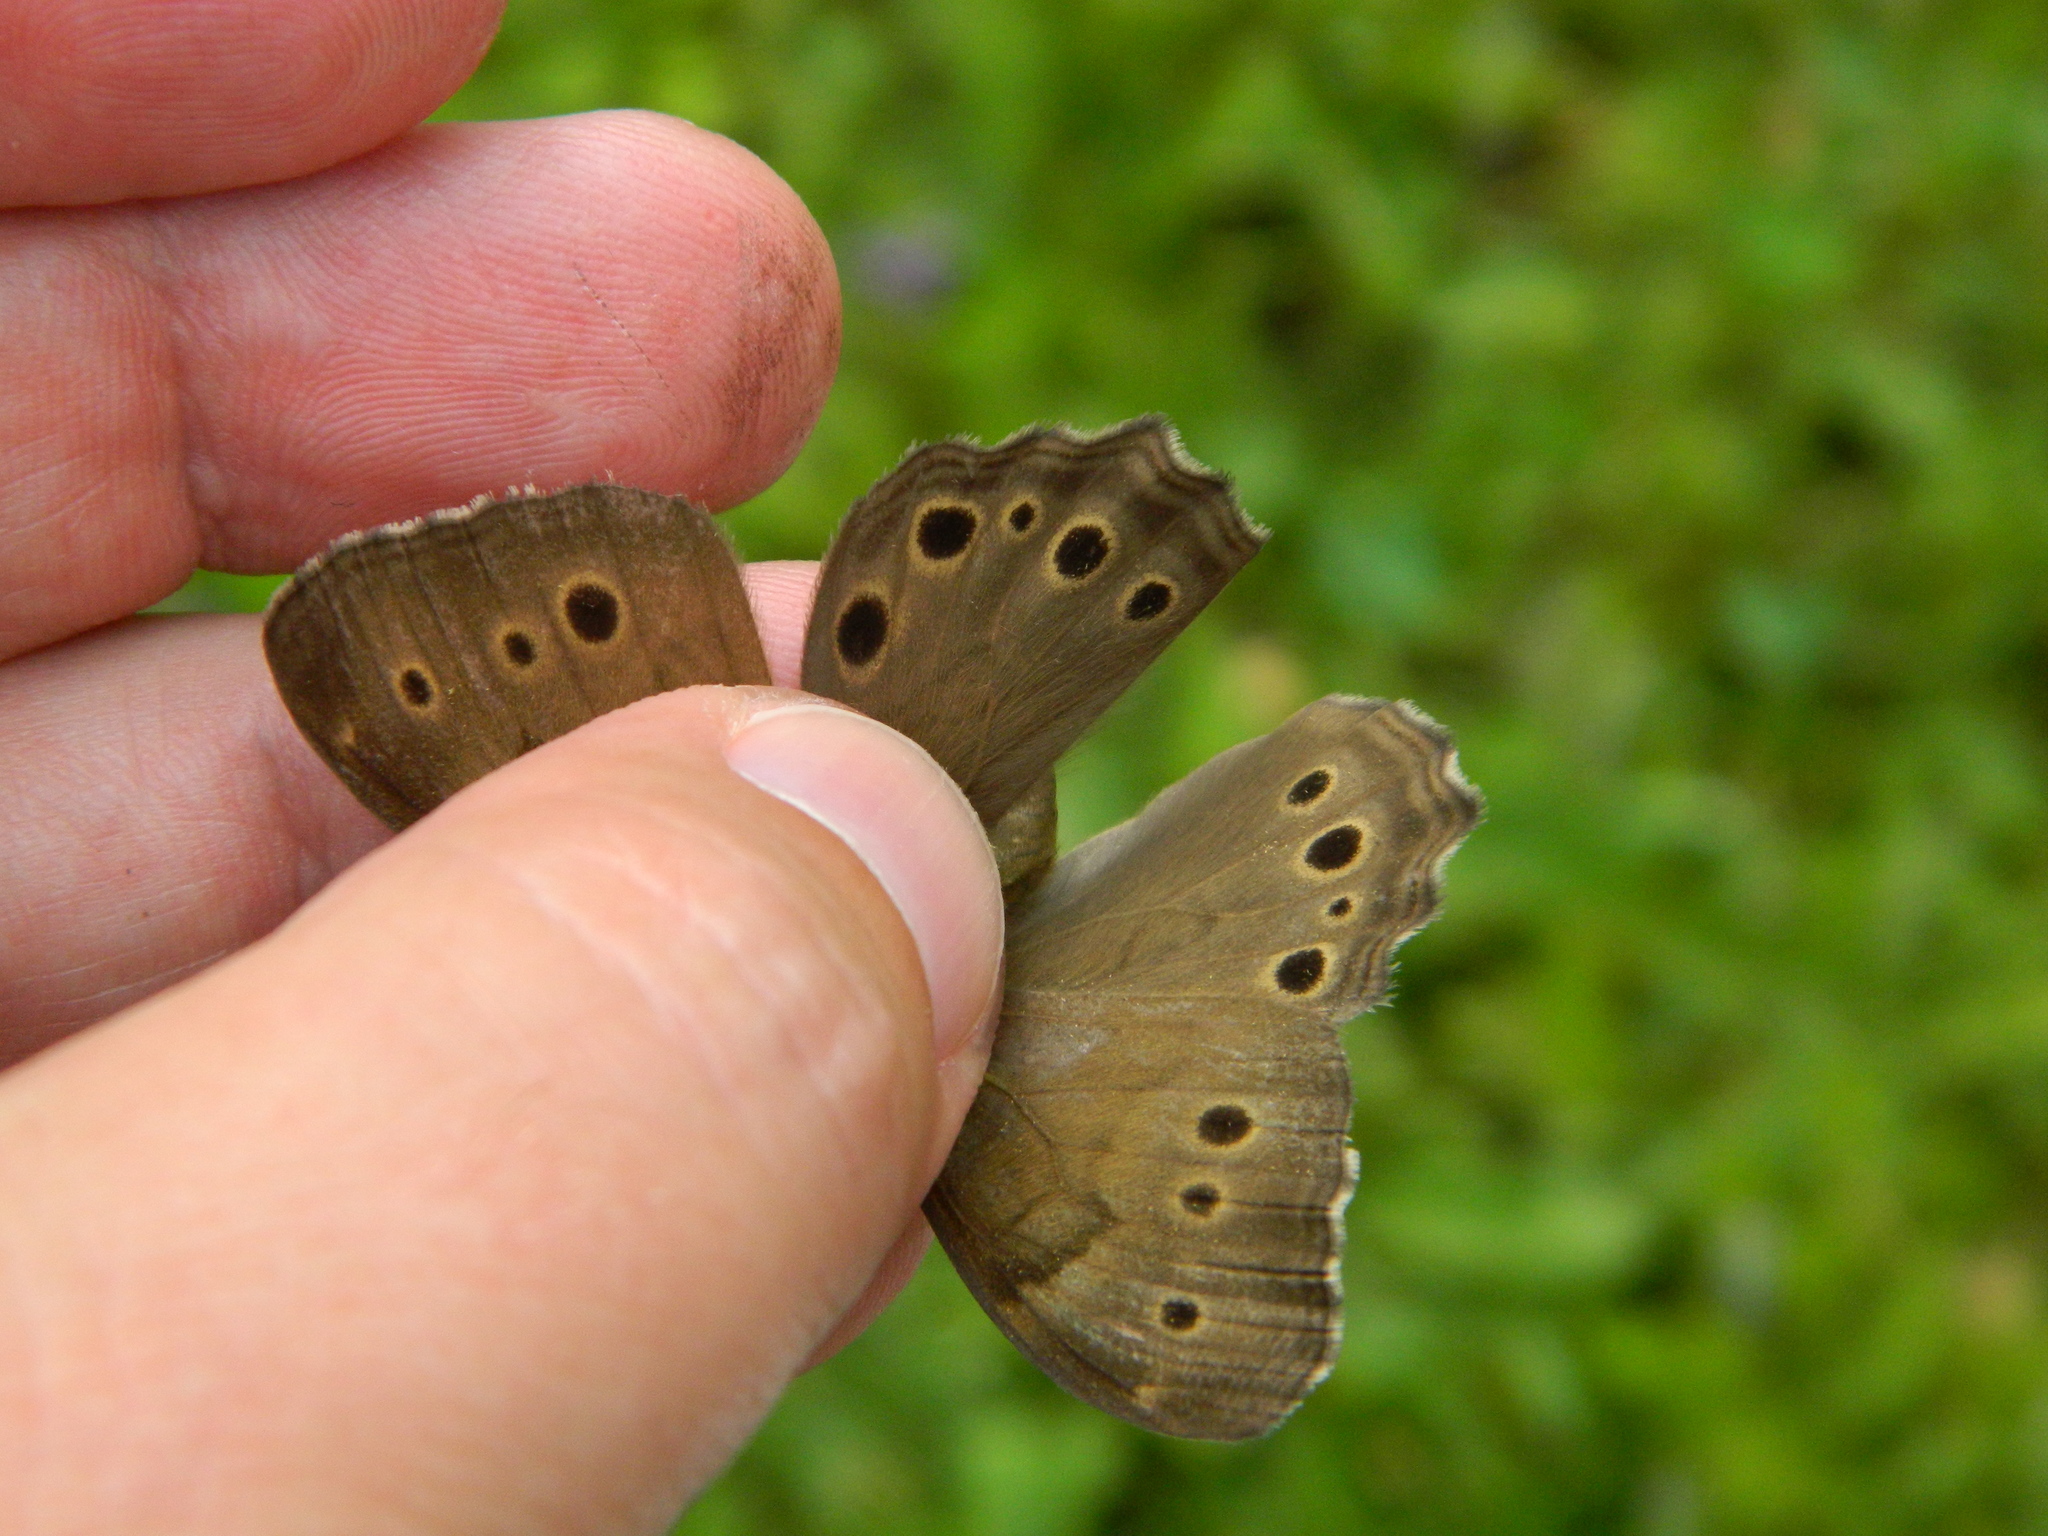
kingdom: Animalia
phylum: Arthropoda
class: Insecta
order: Lepidoptera
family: Nymphalidae
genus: Lethe
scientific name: Lethe anthedon
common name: Northern pearly-eye
